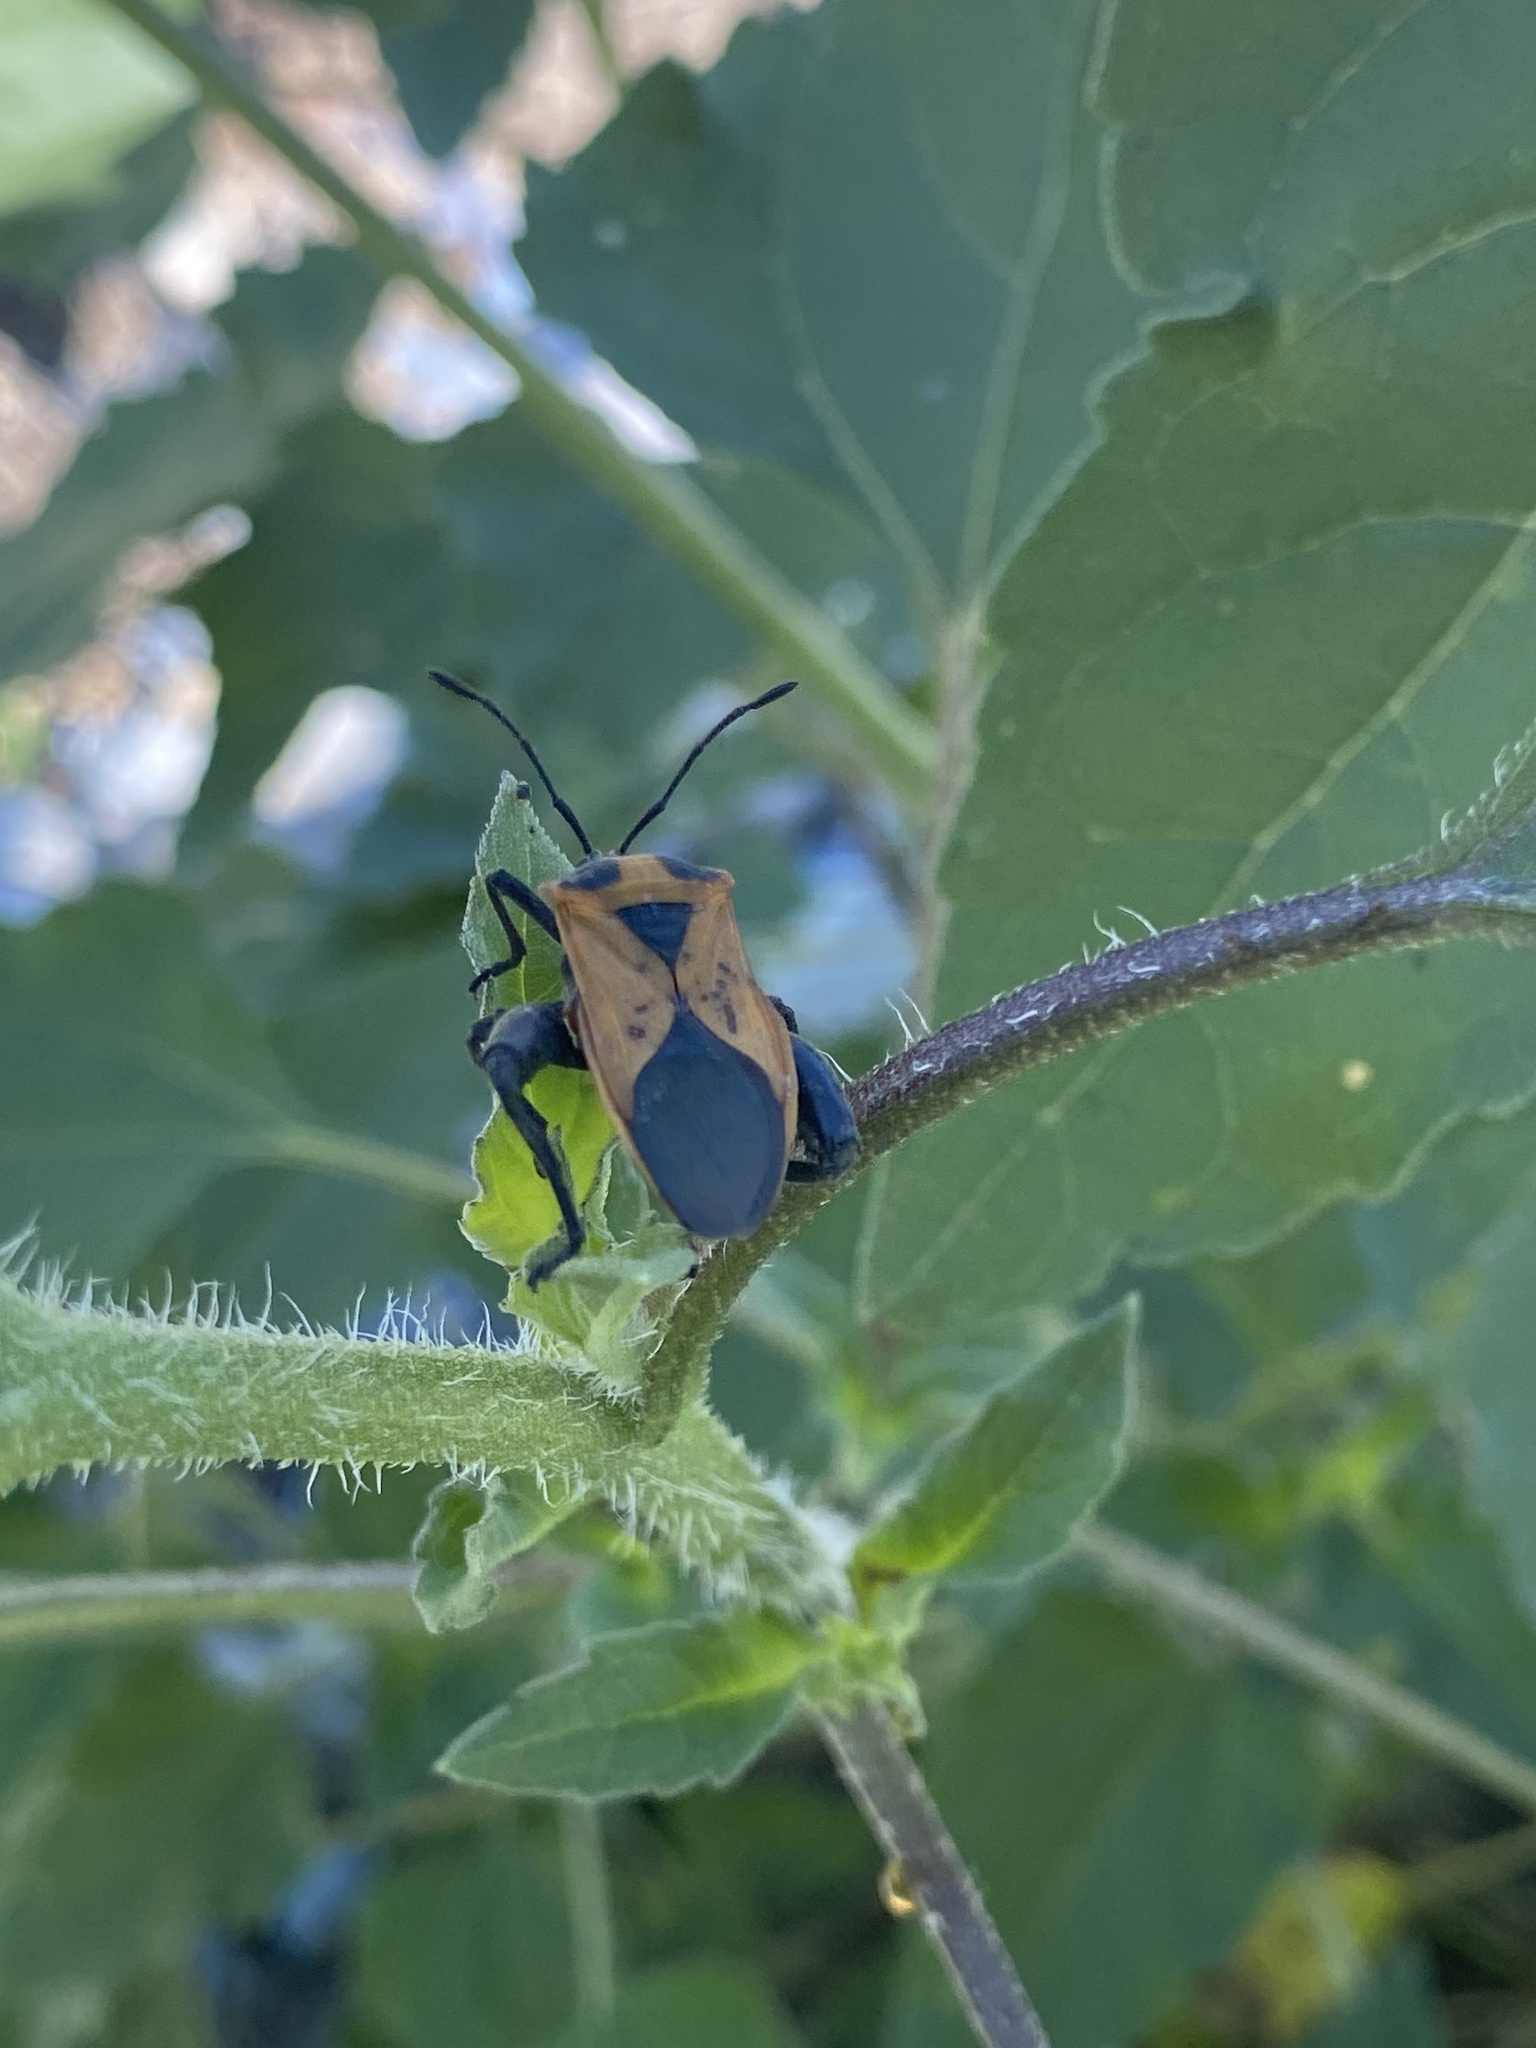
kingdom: Animalia
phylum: Arthropoda
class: Insecta
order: Hemiptera
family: Coreidae
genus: Sagotylus
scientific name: Sagotylus confluens
